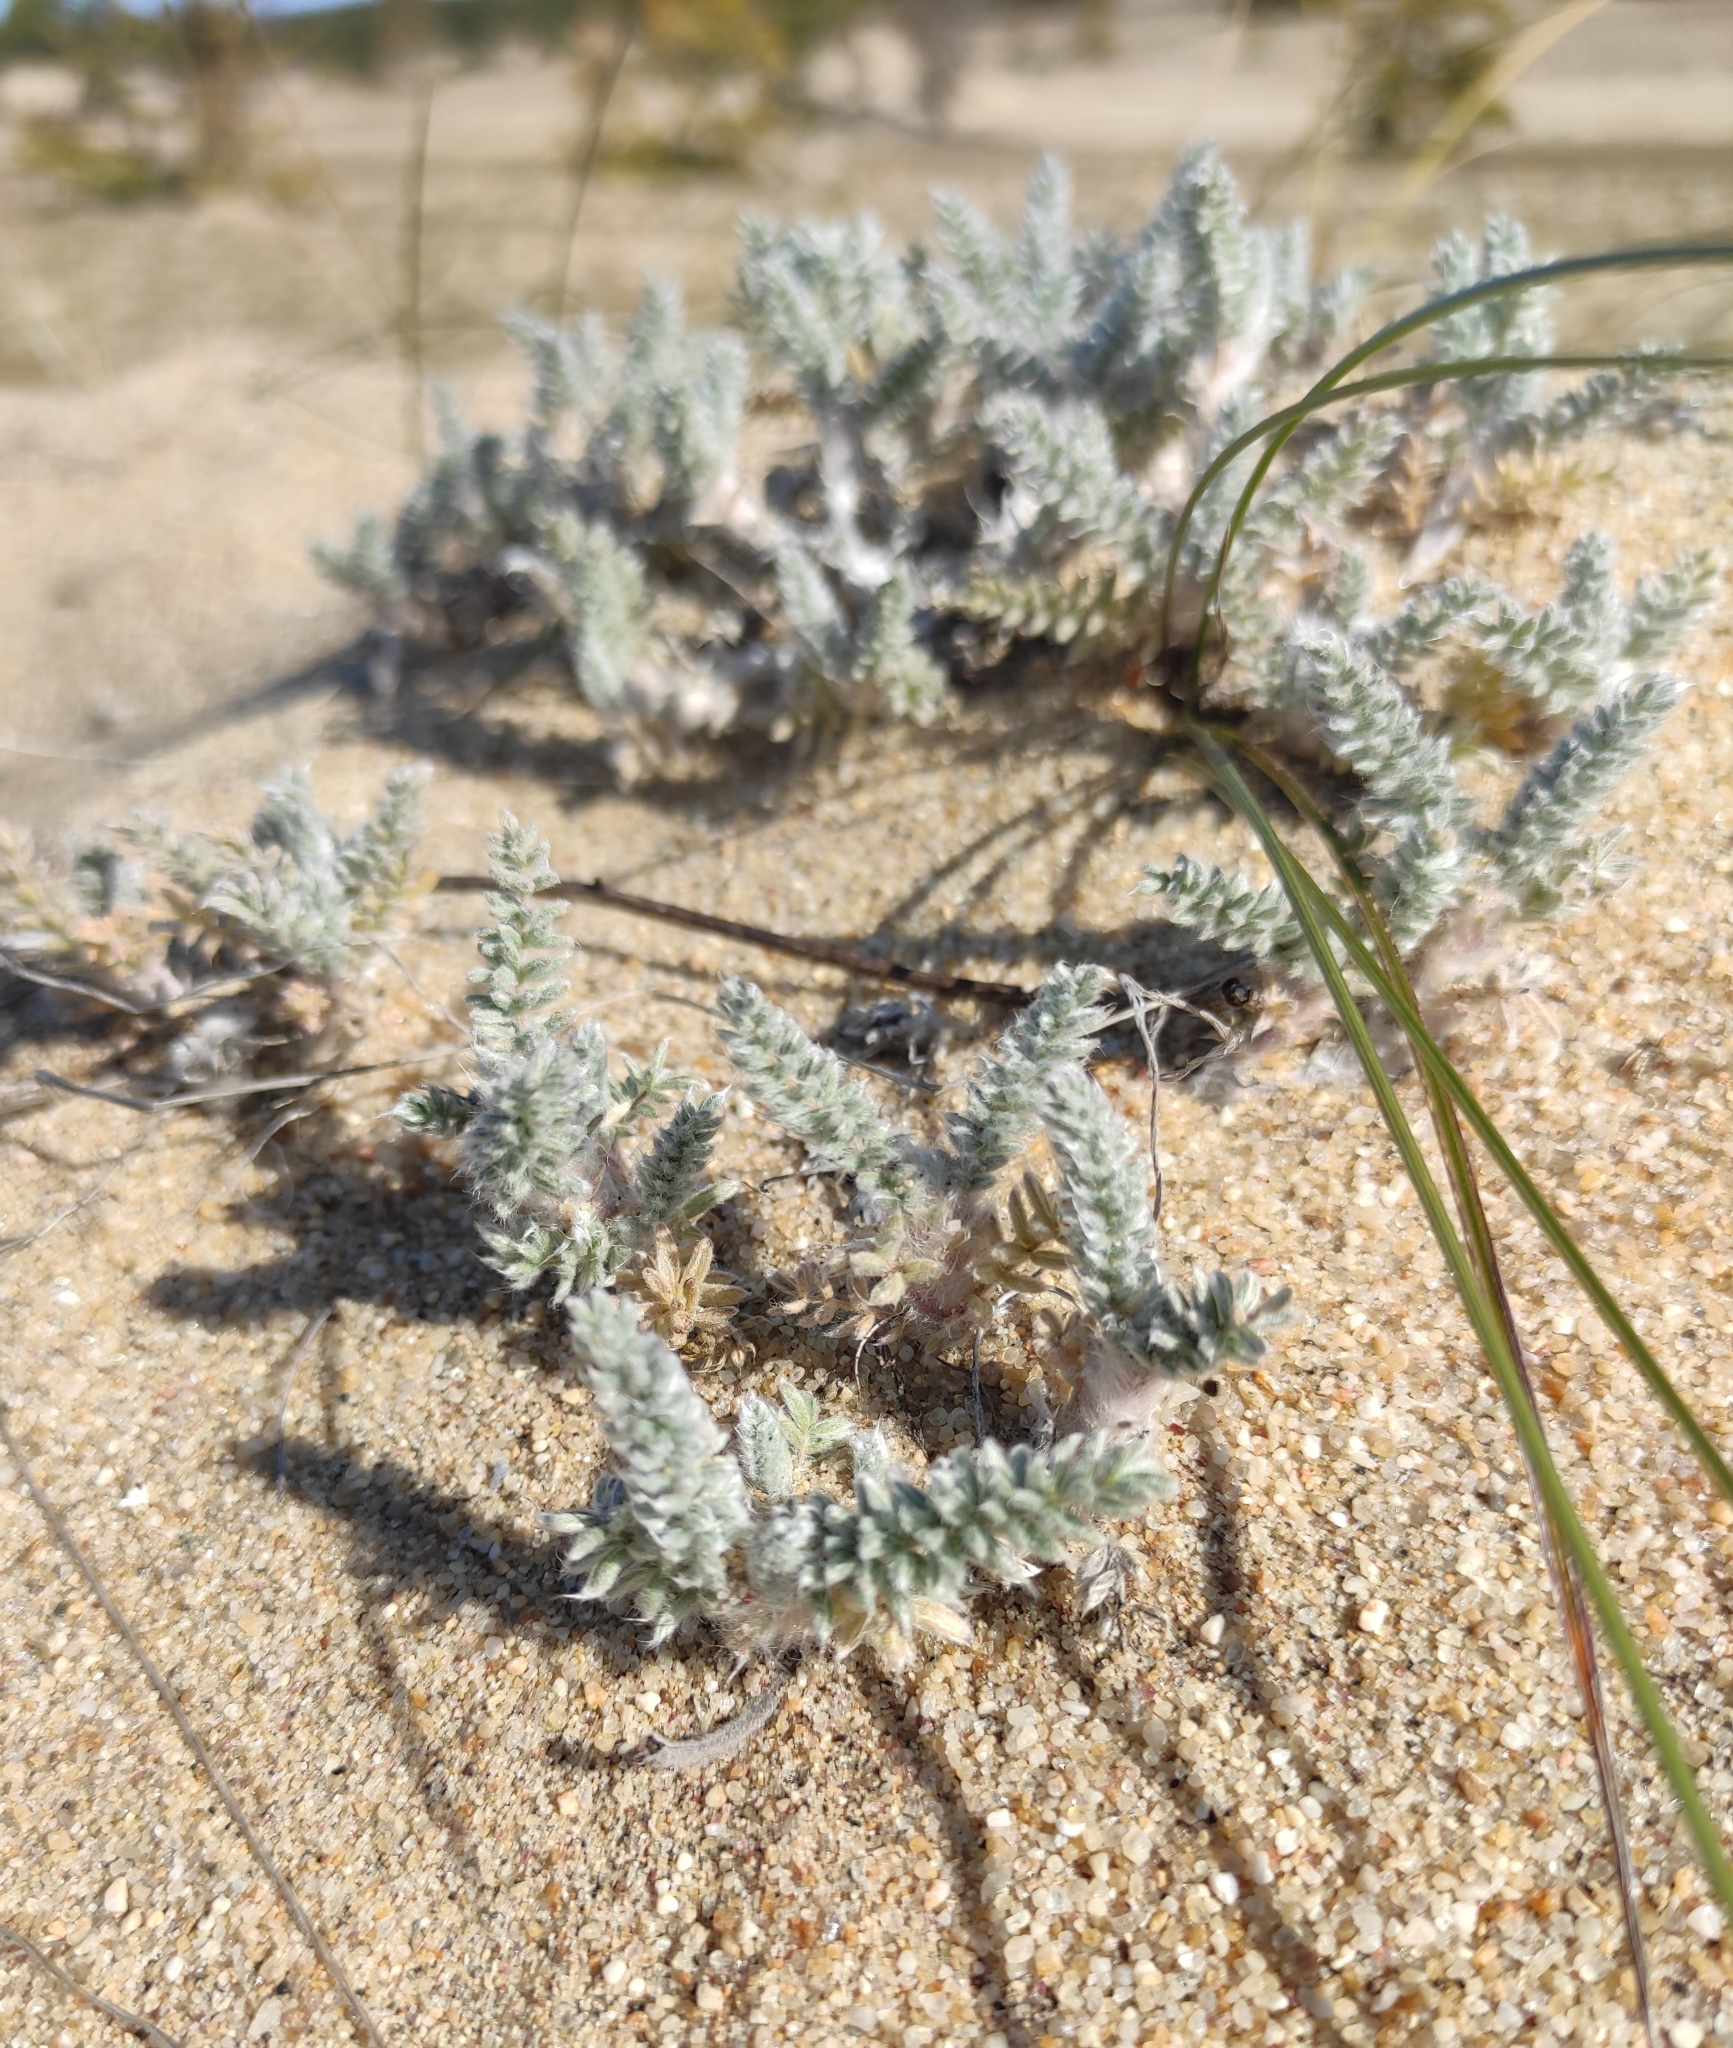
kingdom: Plantae
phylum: Tracheophyta
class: Magnoliopsida
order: Fabales
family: Fabaceae
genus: Oxytropis
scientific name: Oxytropis lanata
